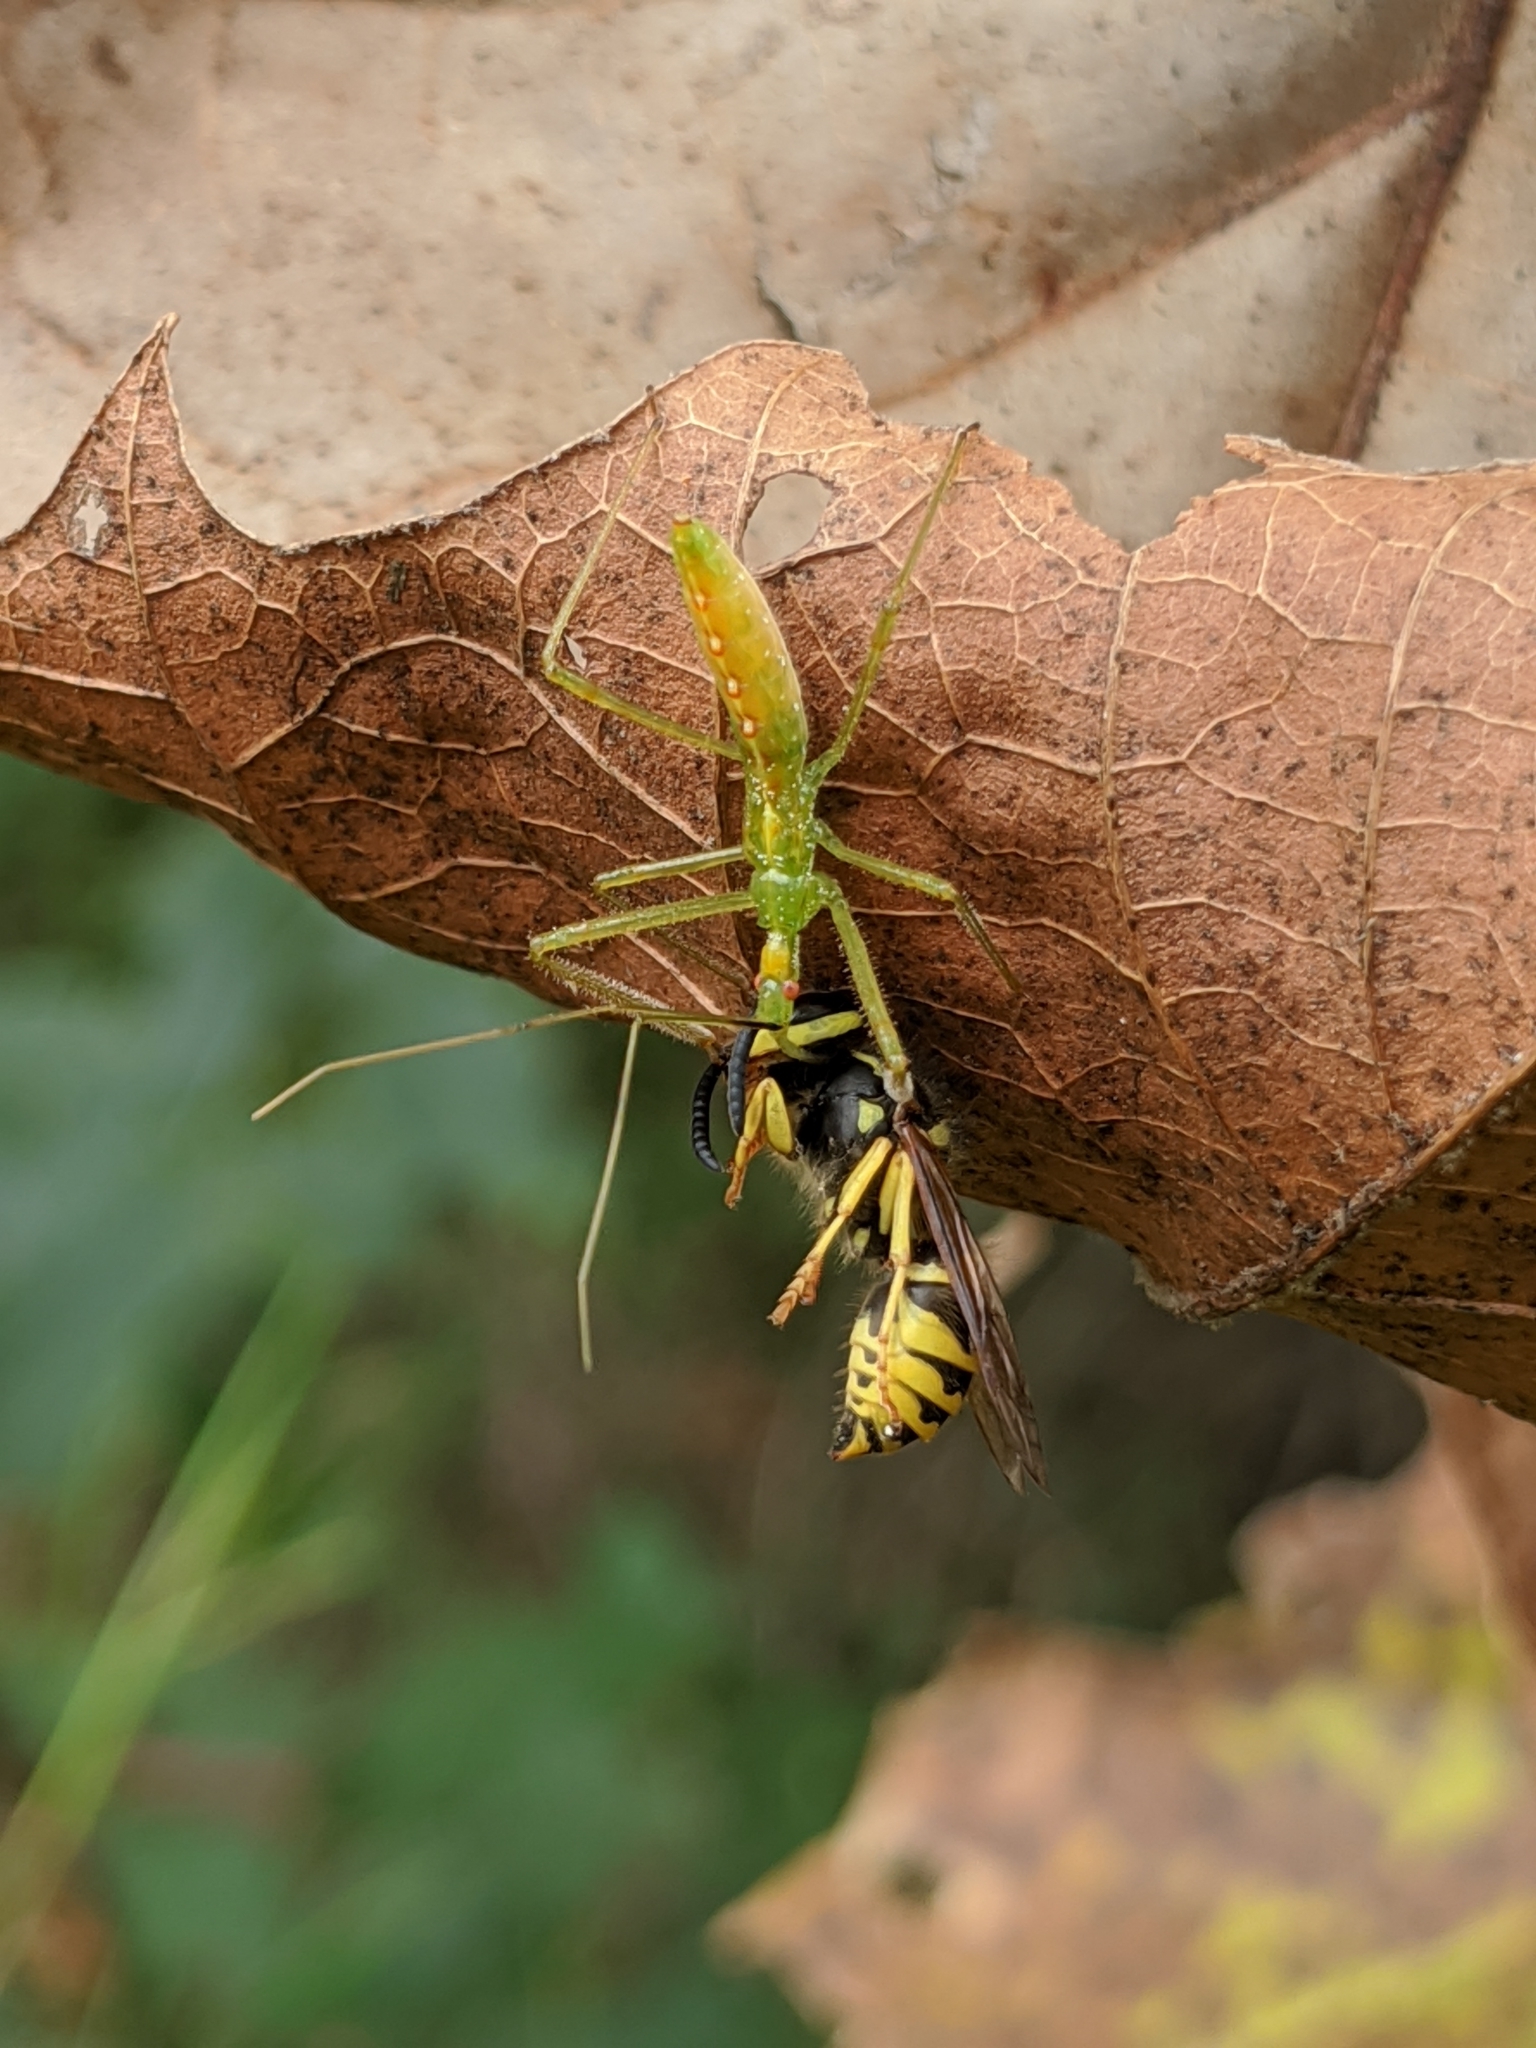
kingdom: Animalia
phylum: Arthropoda
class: Insecta
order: Hemiptera
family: Reduviidae
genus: Zelus
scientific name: Zelus luridus
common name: Pale green assassin bug
